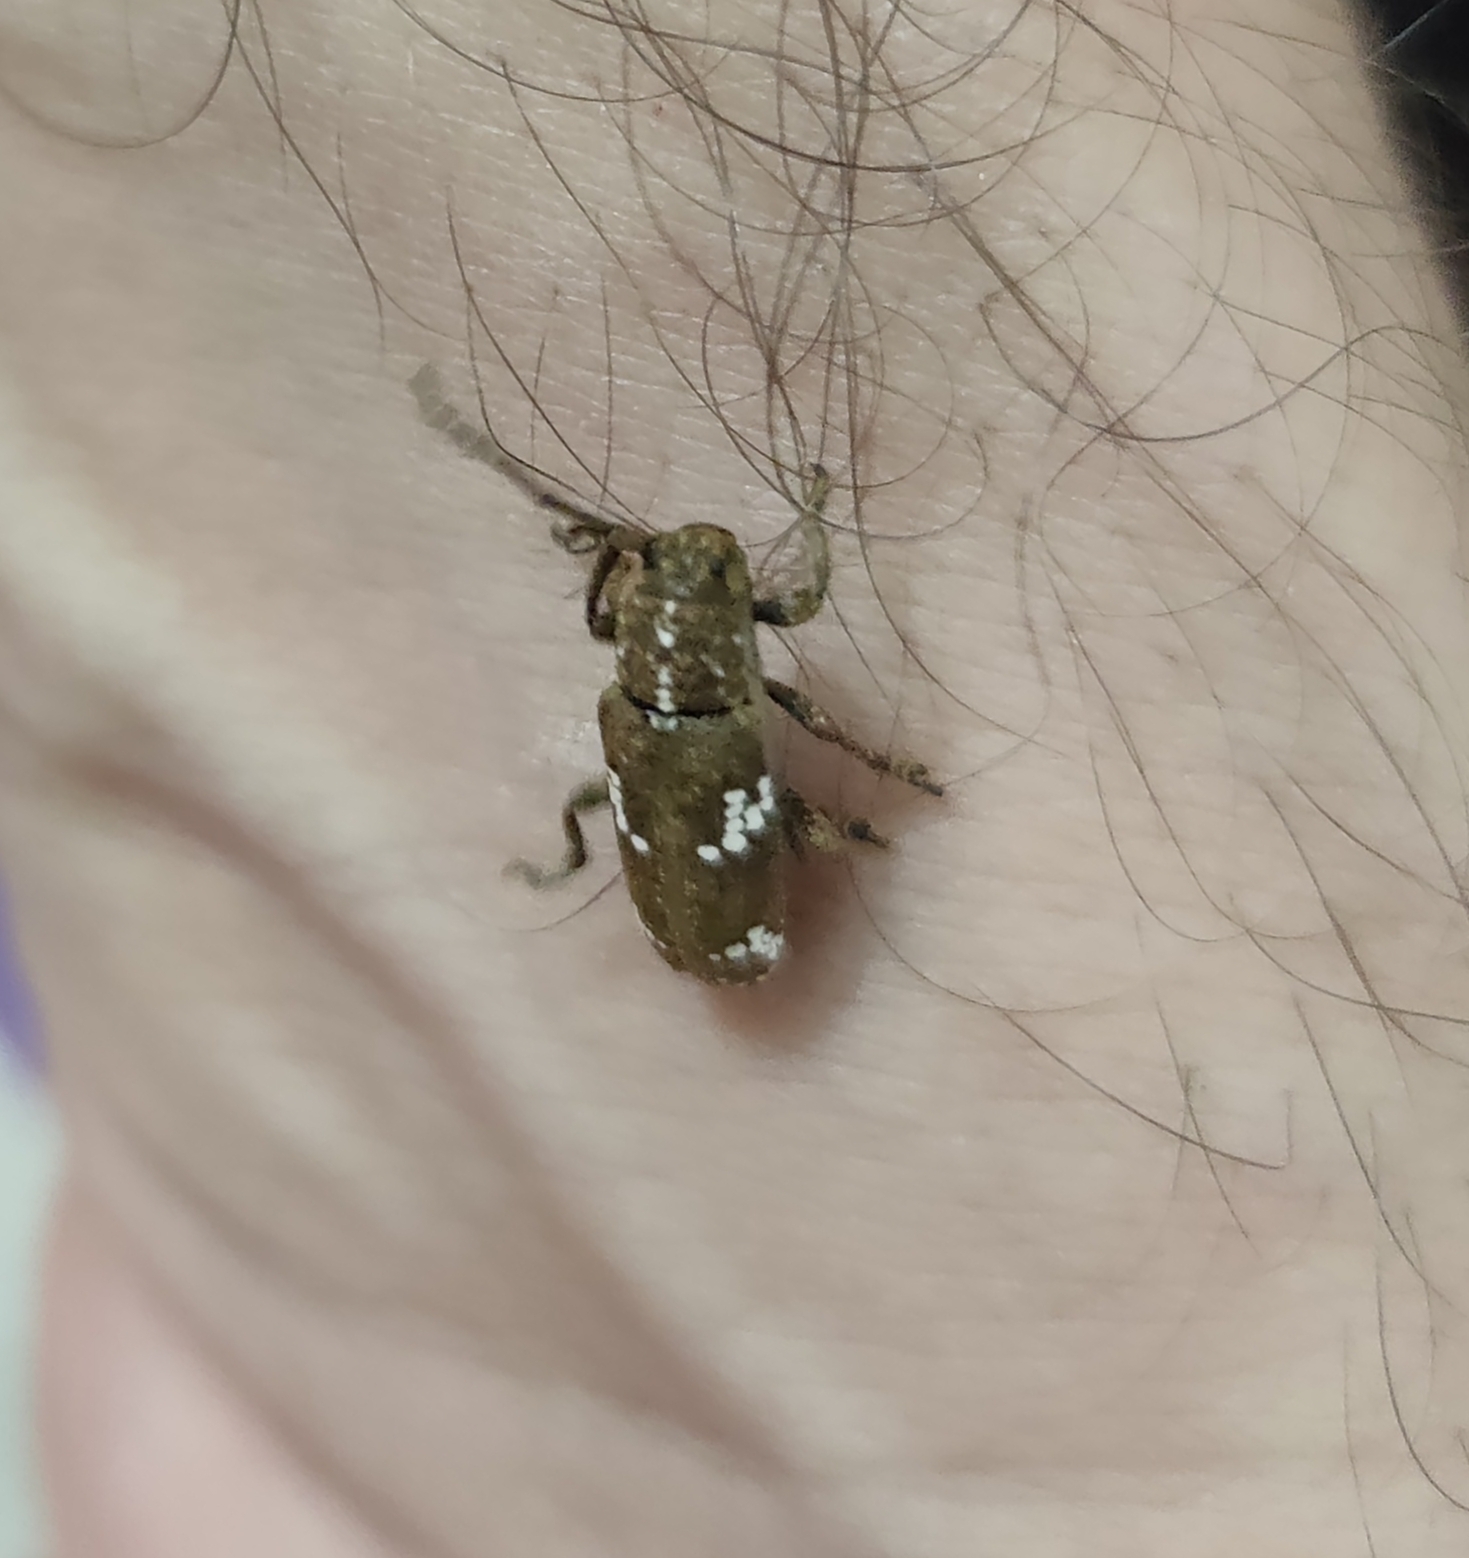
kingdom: Animalia
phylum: Arthropoda
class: Insecta
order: Coleoptera
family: Cerambycidae
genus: Apomecyna
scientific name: Apomecyna saltator
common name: Pointed gourd vine borer
